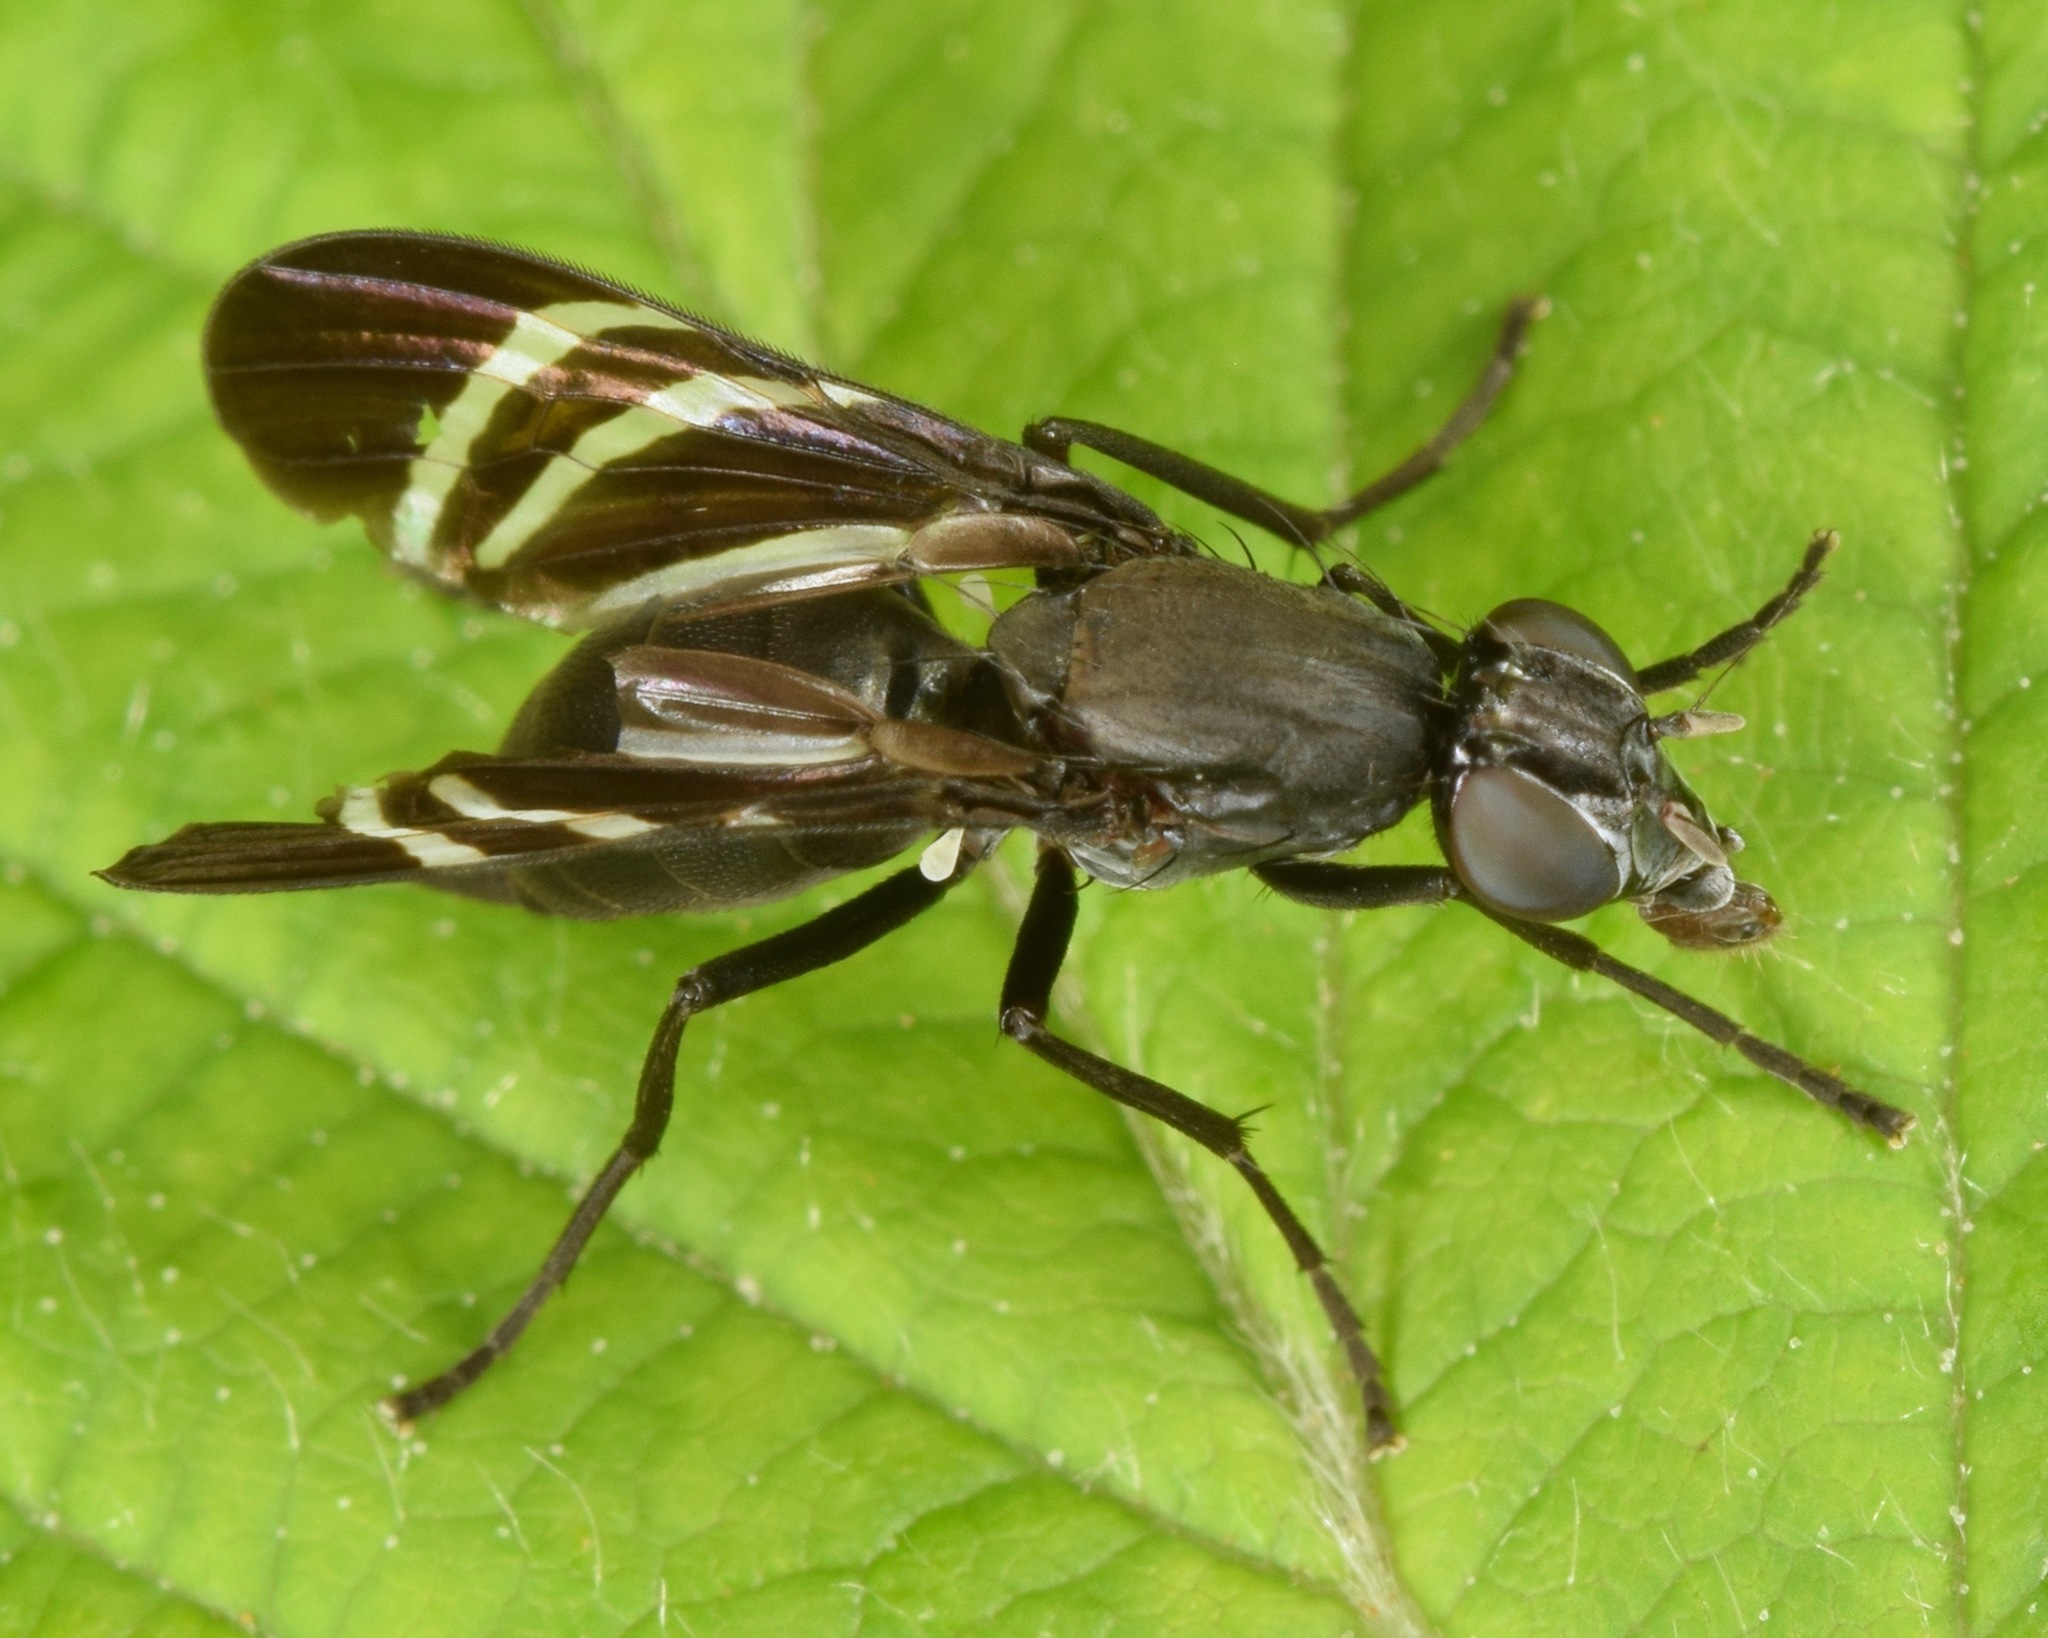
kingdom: Animalia
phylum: Arthropoda
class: Insecta
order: Diptera
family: Ulidiidae
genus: Tritoxa
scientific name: Tritoxa flexa
